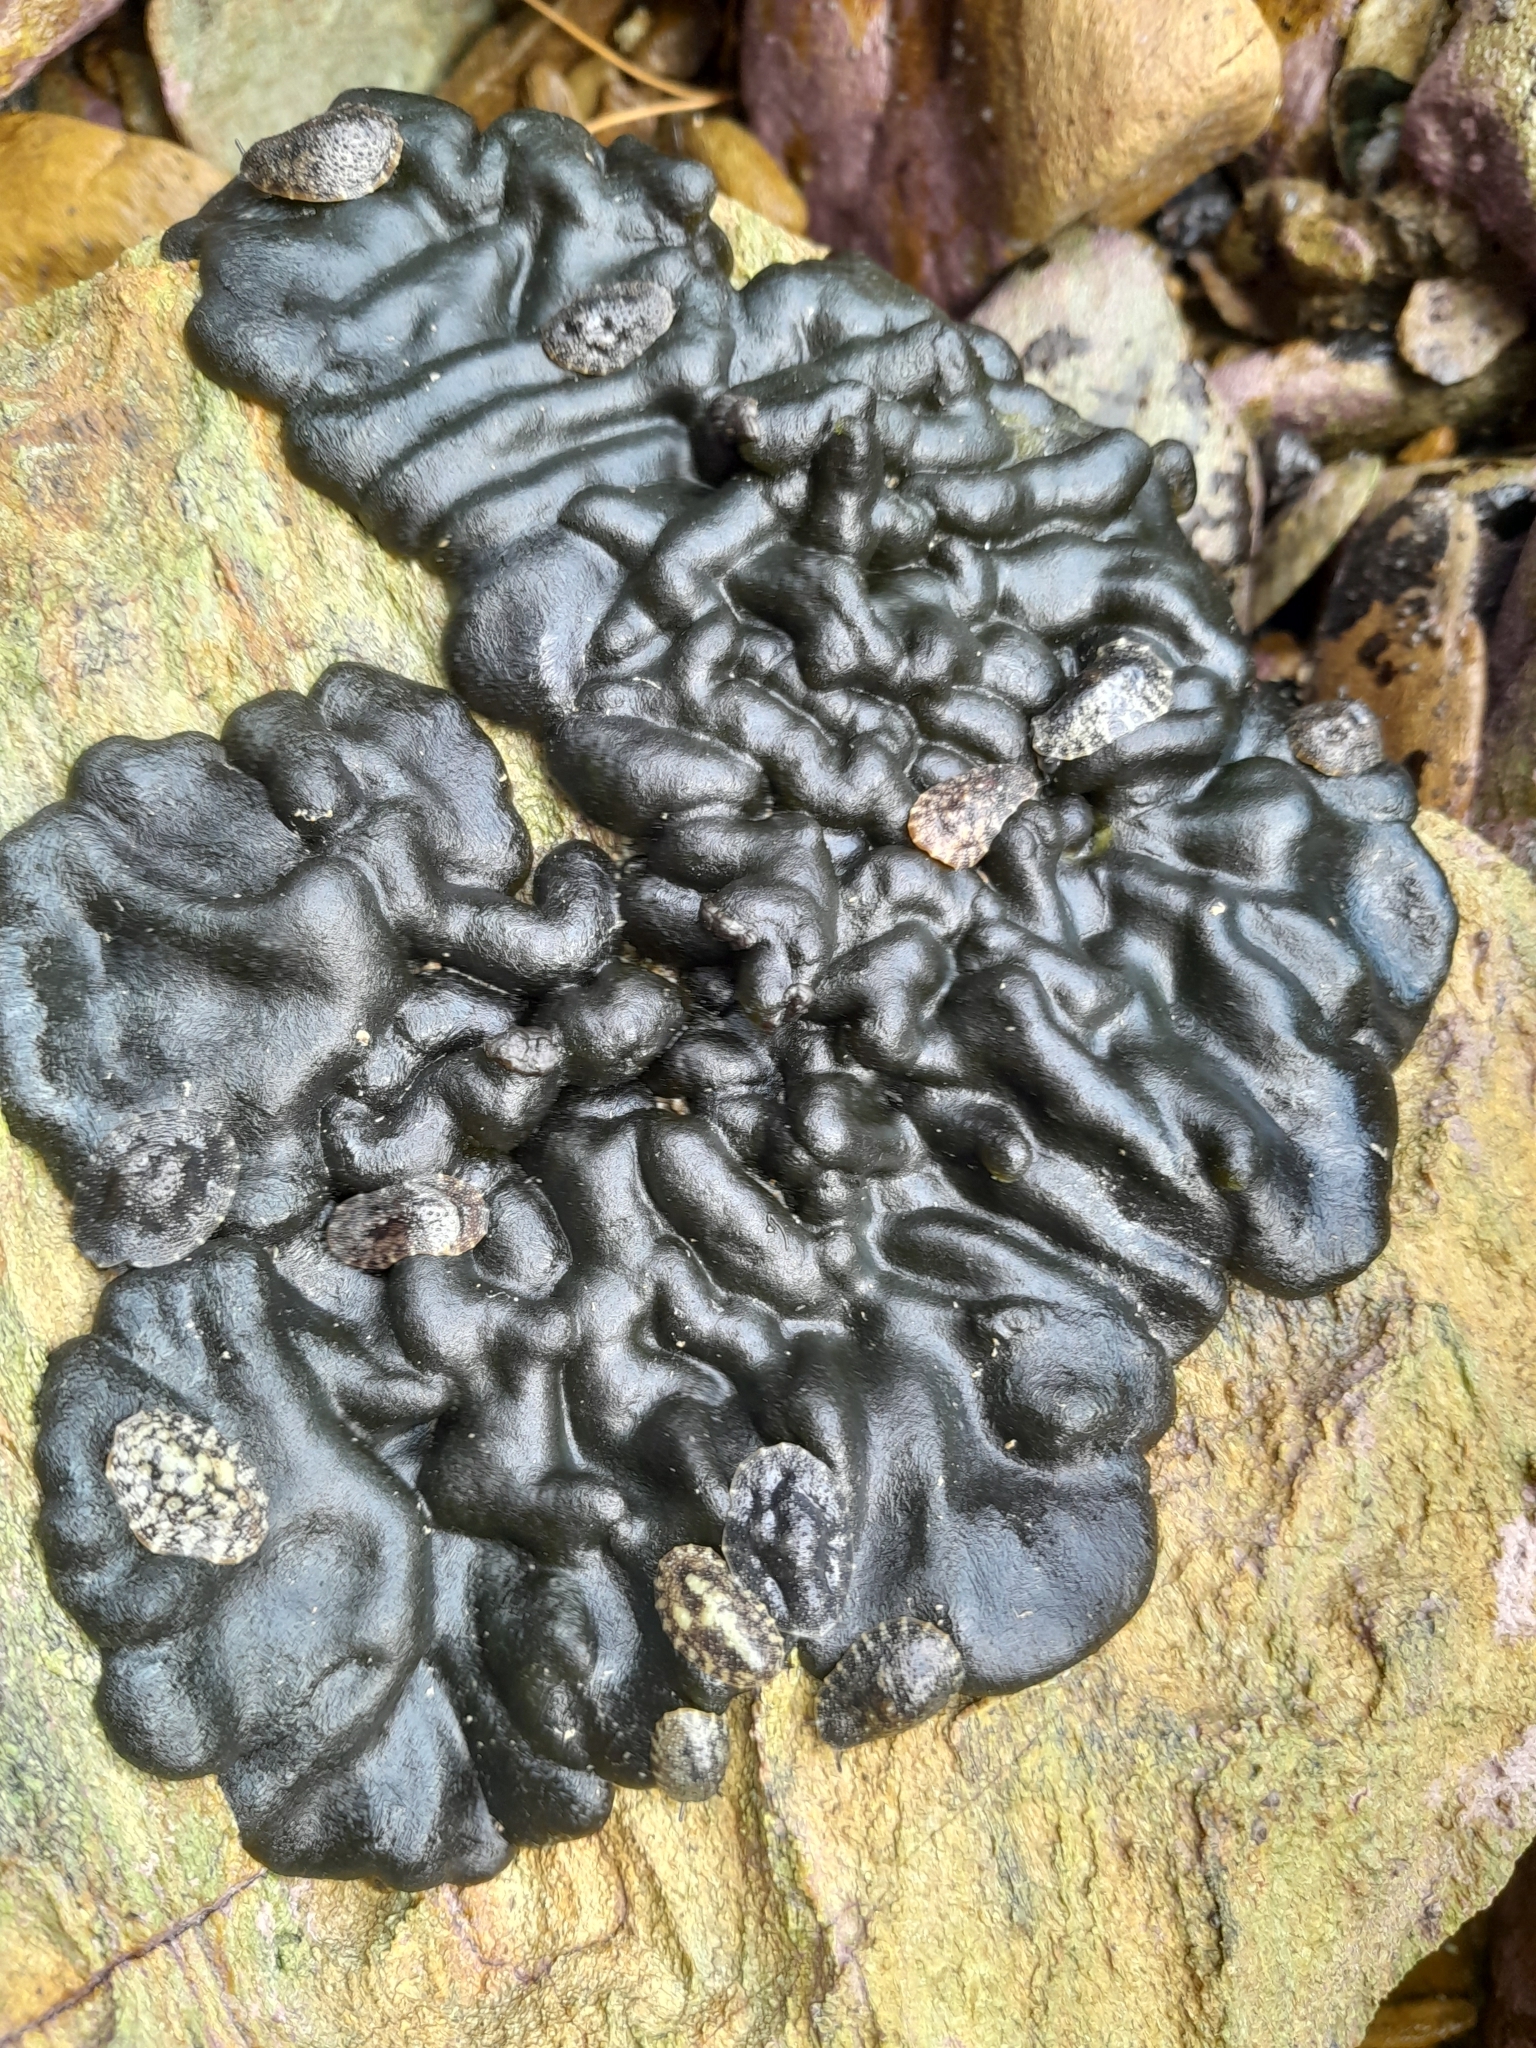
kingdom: Plantae
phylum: Chlorophyta
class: Ulvophyceae
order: Bryopsidales
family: Codiaceae
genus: Codium
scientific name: Codium convolutum
